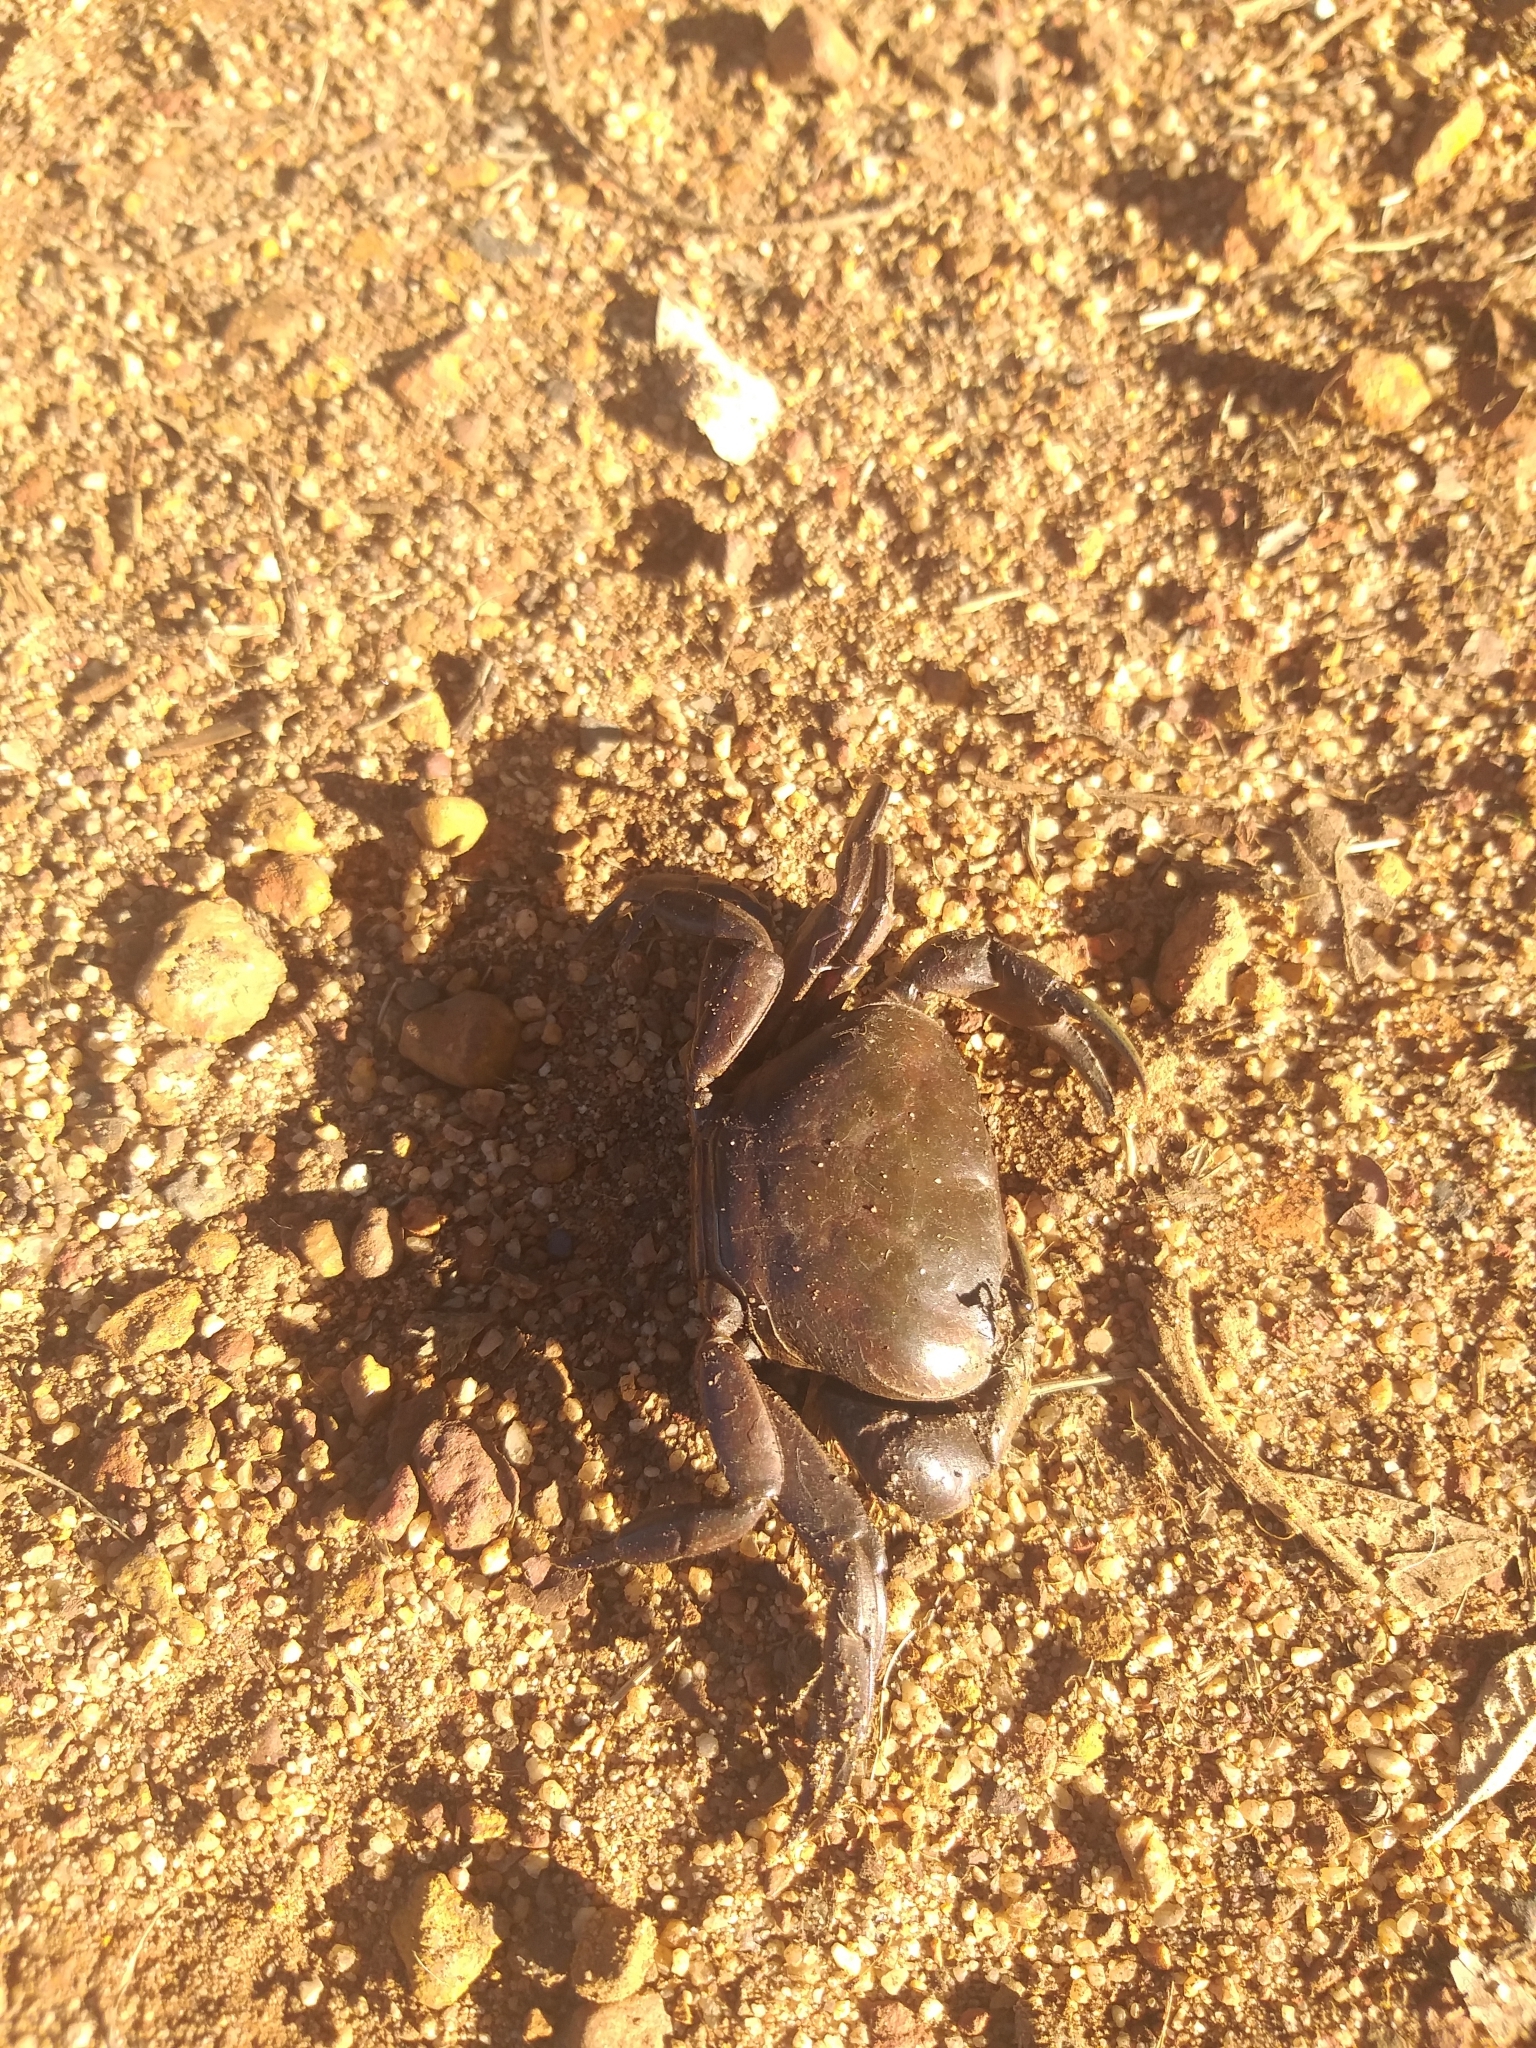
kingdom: Animalia
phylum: Arthropoda
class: Malacostraca
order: Decapoda
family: Potamonautidae
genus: Potamonautes
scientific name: Potamonautes perlatus
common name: Cape river crab
